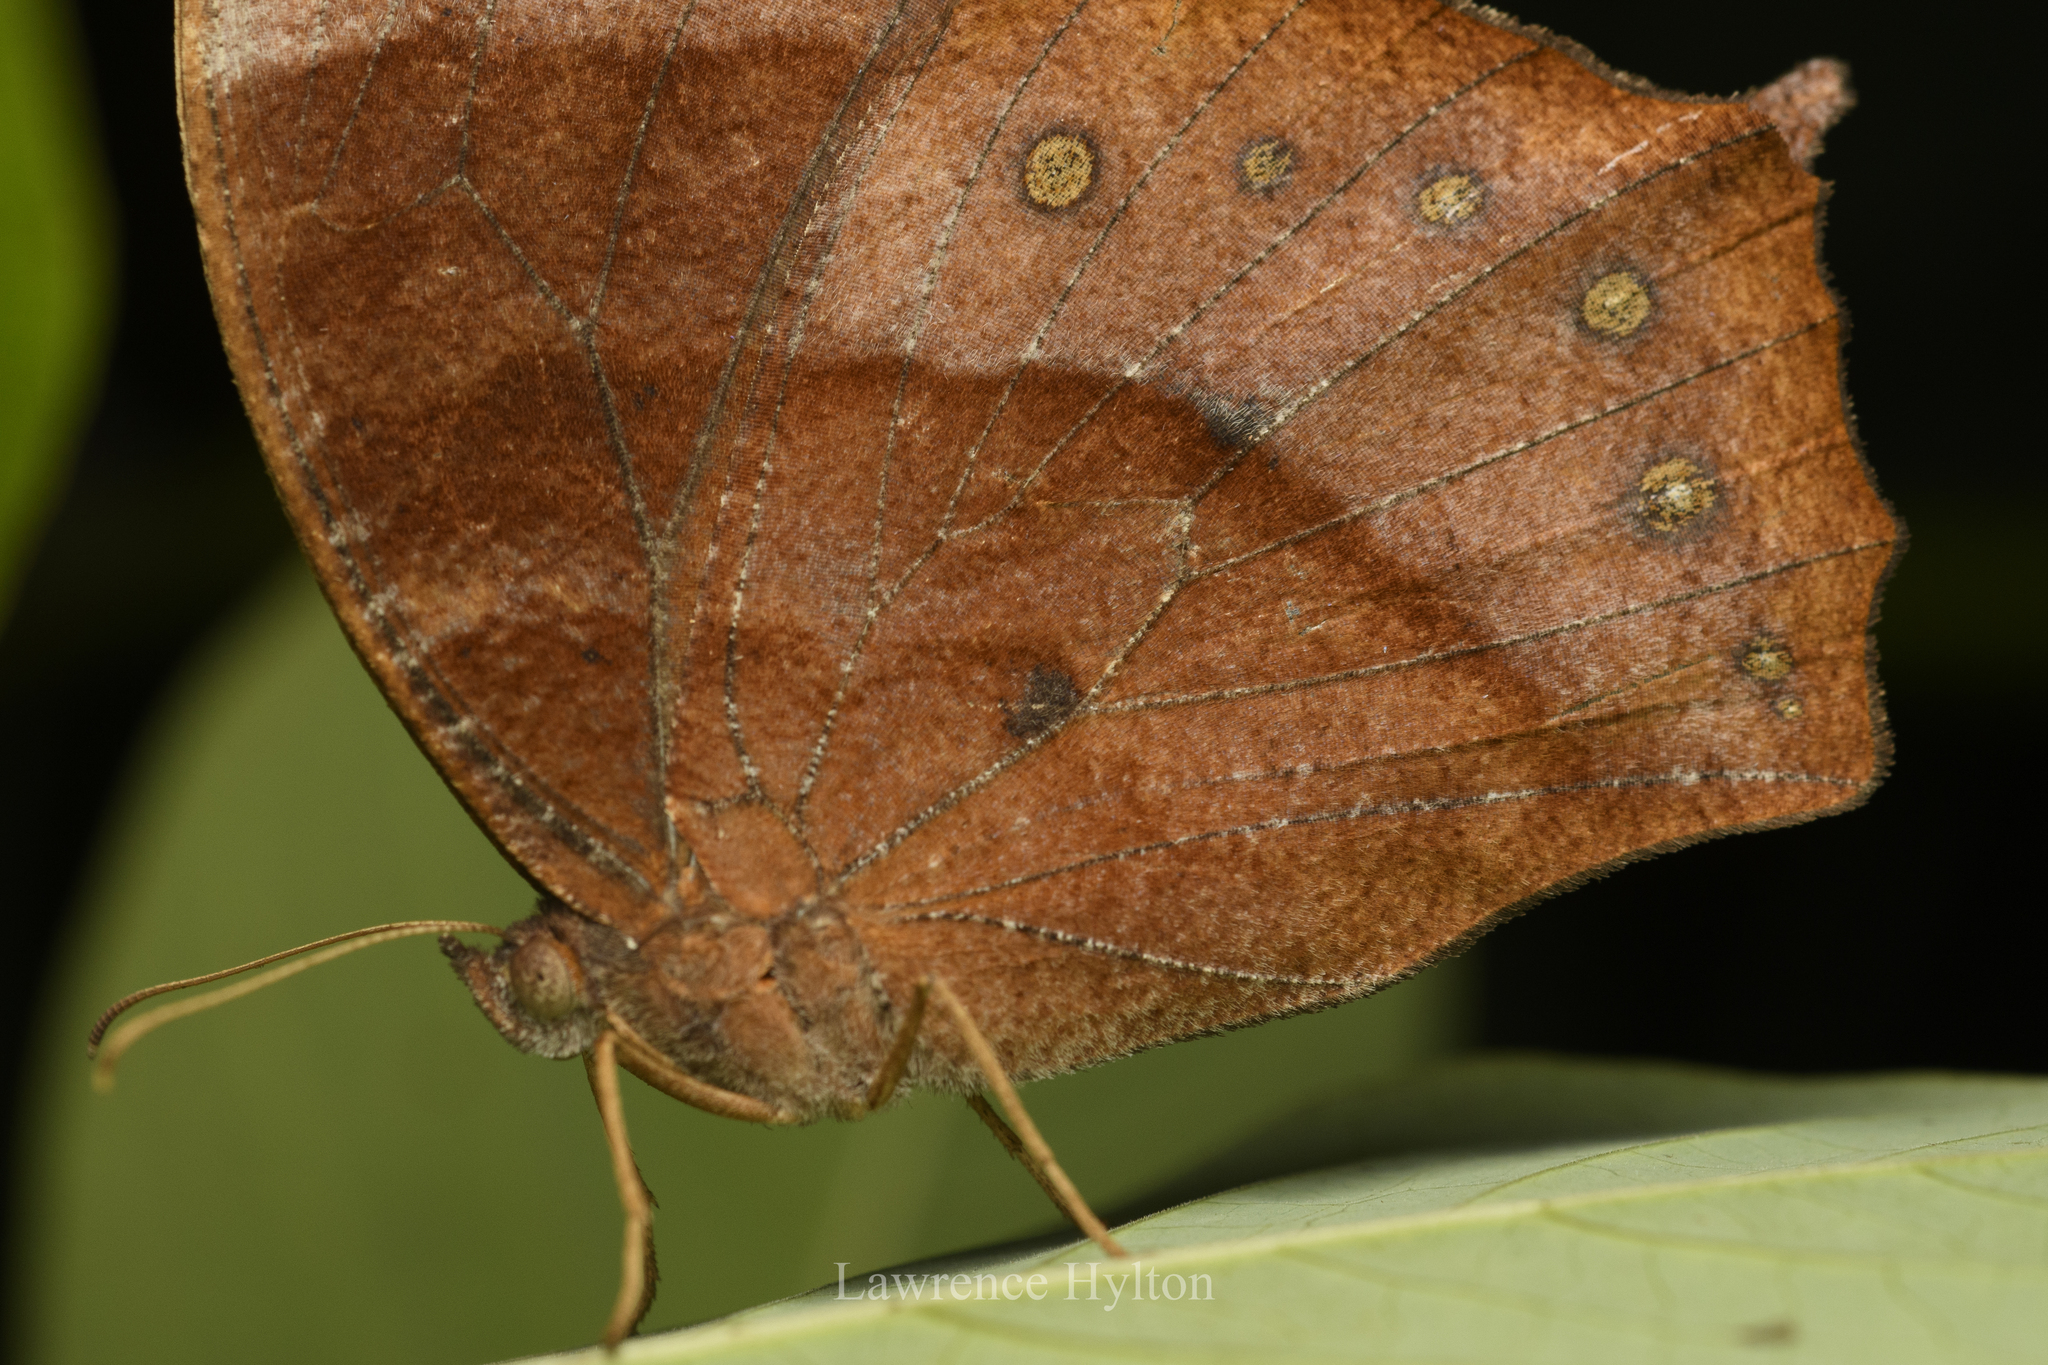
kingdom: Animalia
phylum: Arthropoda
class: Insecta
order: Lepidoptera
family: Nymphalidae
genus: Melanitis
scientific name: Melanitis phedima
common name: Dark evening brown
